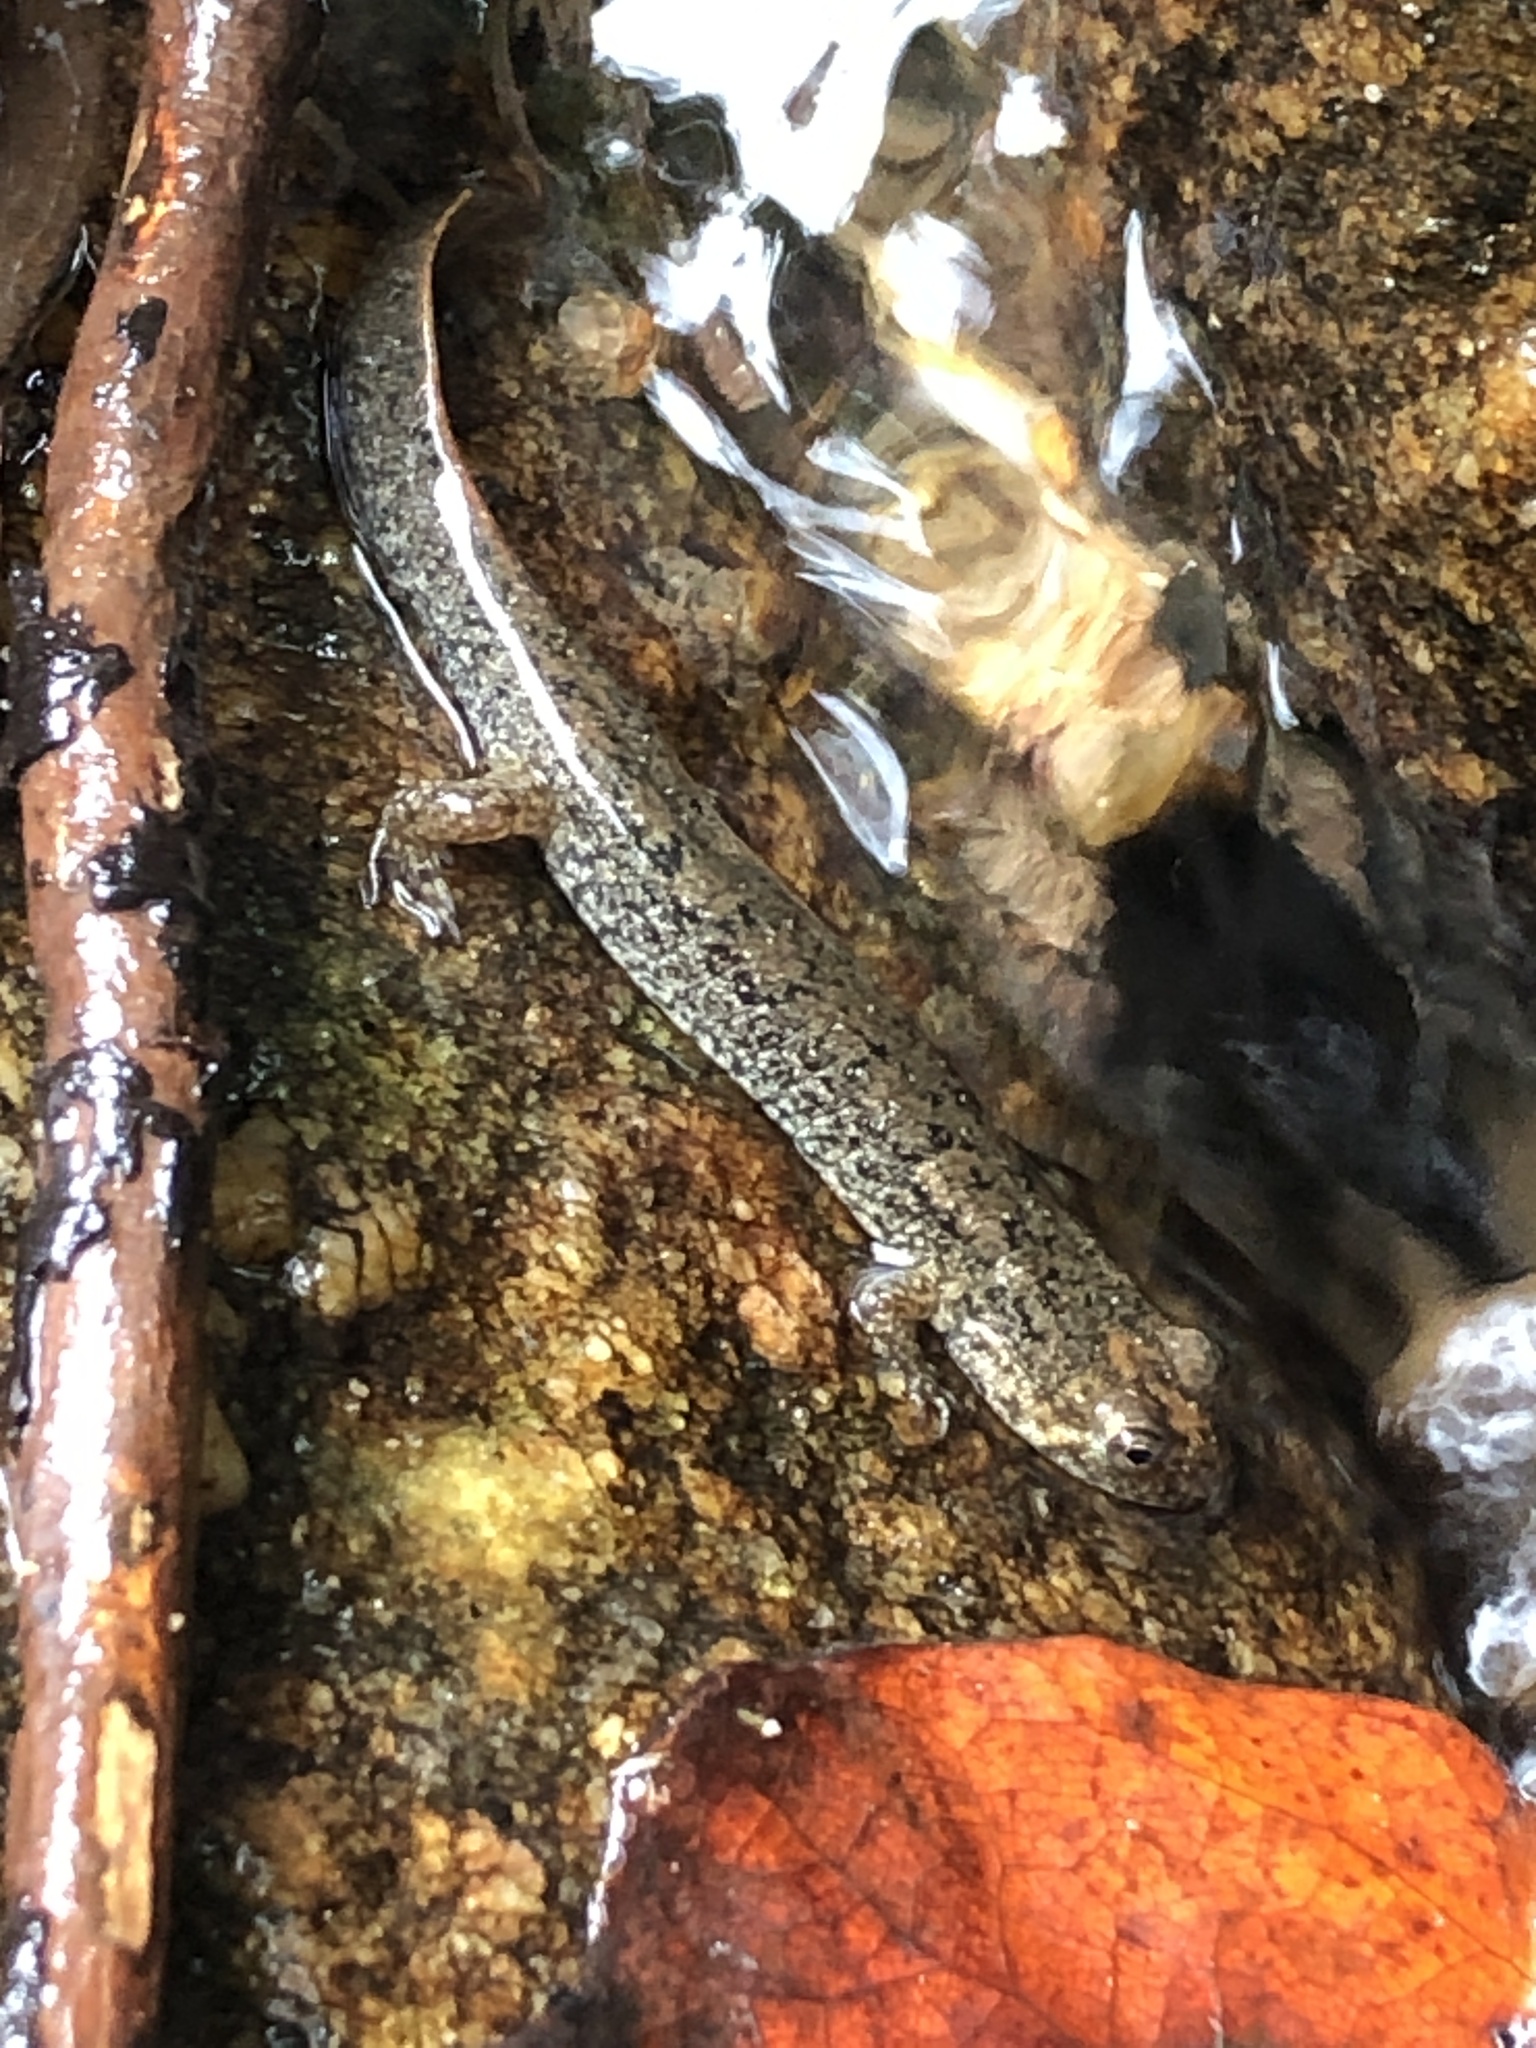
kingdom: Animalia
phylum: Chordata
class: Amphibia
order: Caudata
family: Plethodontidae
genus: Desmognathus
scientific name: Desmognathus
